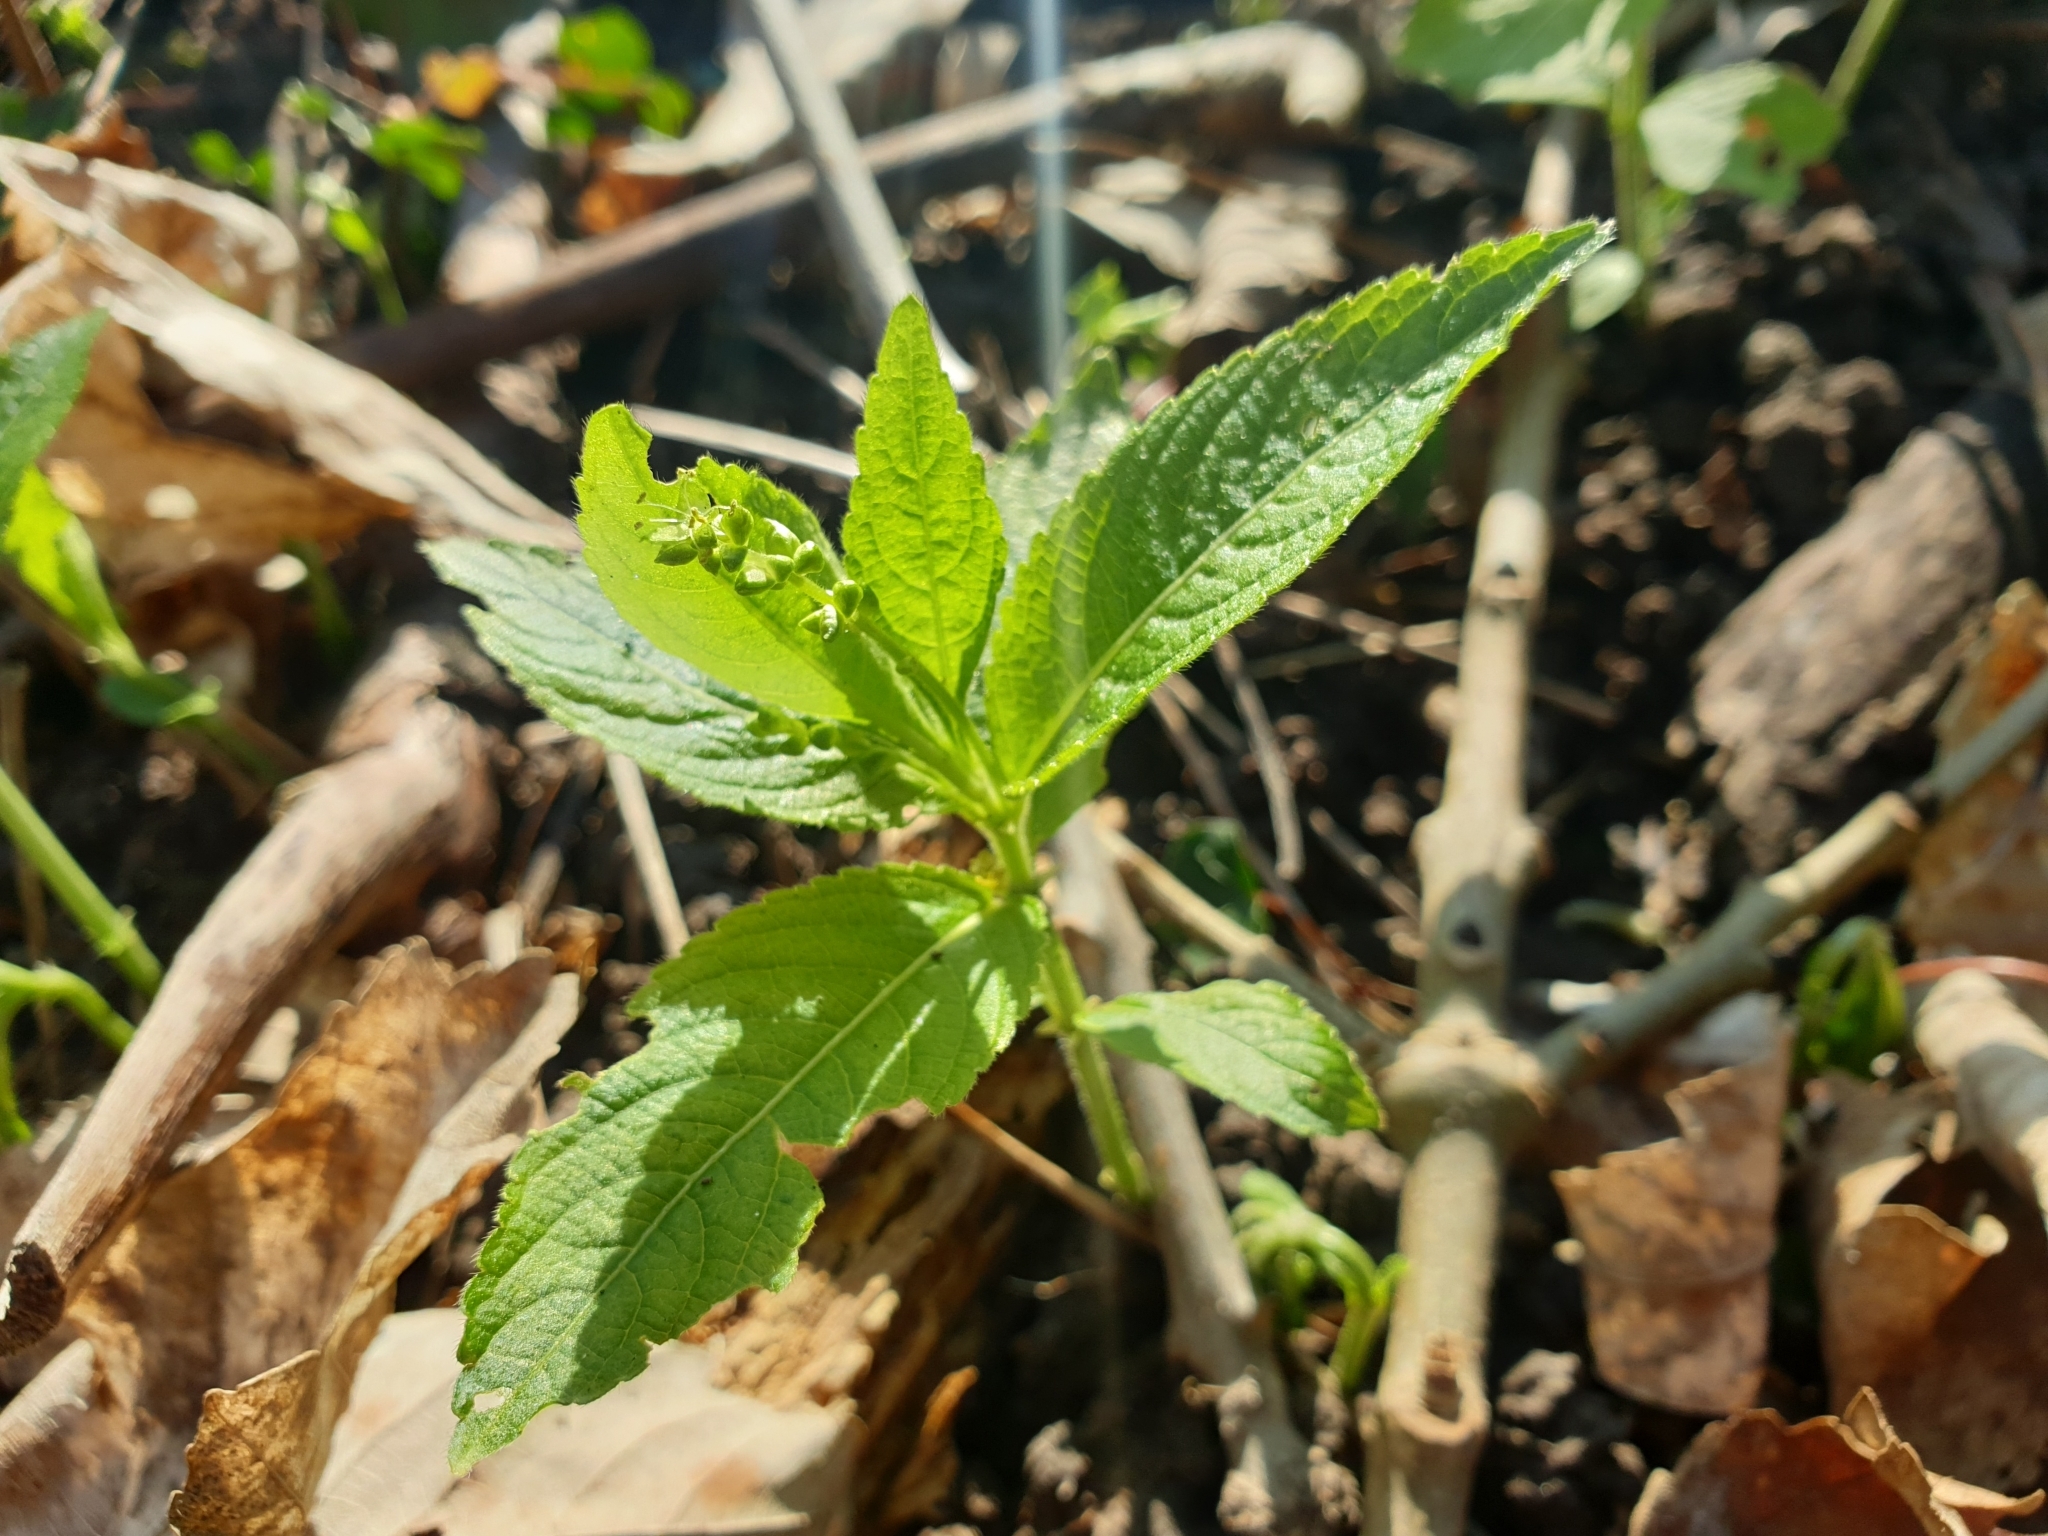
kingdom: Plantae
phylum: Tracheophyta
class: Magnoliopsida
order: Malpighiales
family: Euphorbiaceae
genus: Mercurialis
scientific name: Mercurialis perennis
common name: Dog mercury
